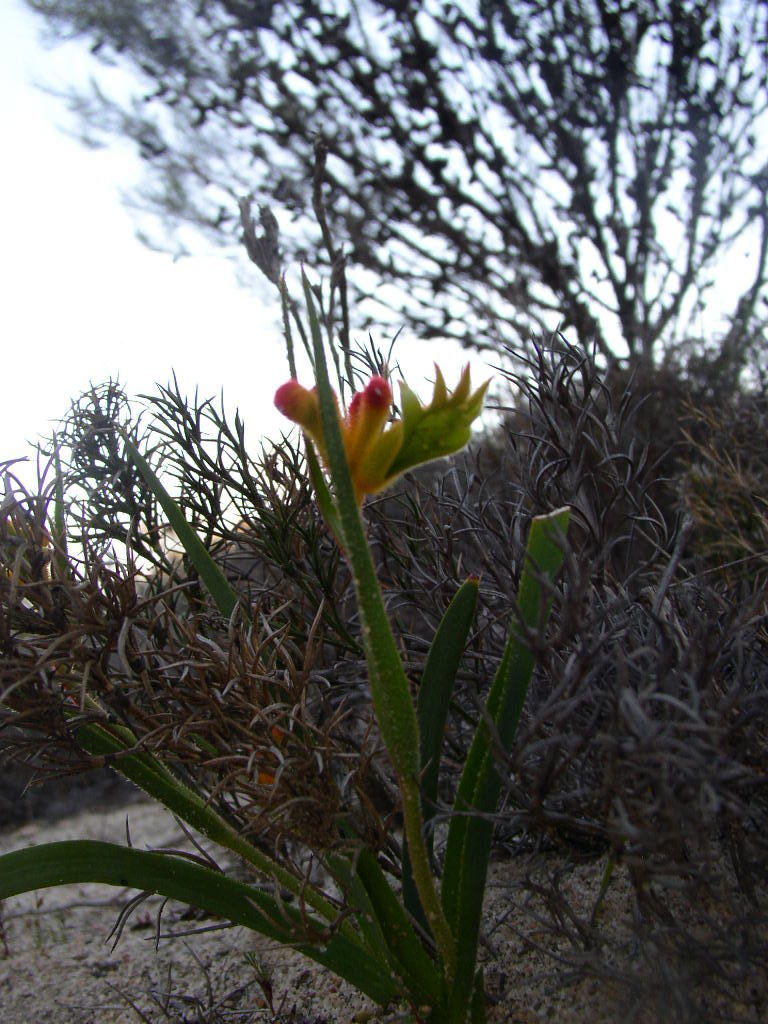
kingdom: Plantae
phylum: Tracheophyta
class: Liliopsida
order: Commelinales
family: Haemodoraceae
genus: Anigozanthos
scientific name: Anigozanthos humilis
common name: Cat's-paw
